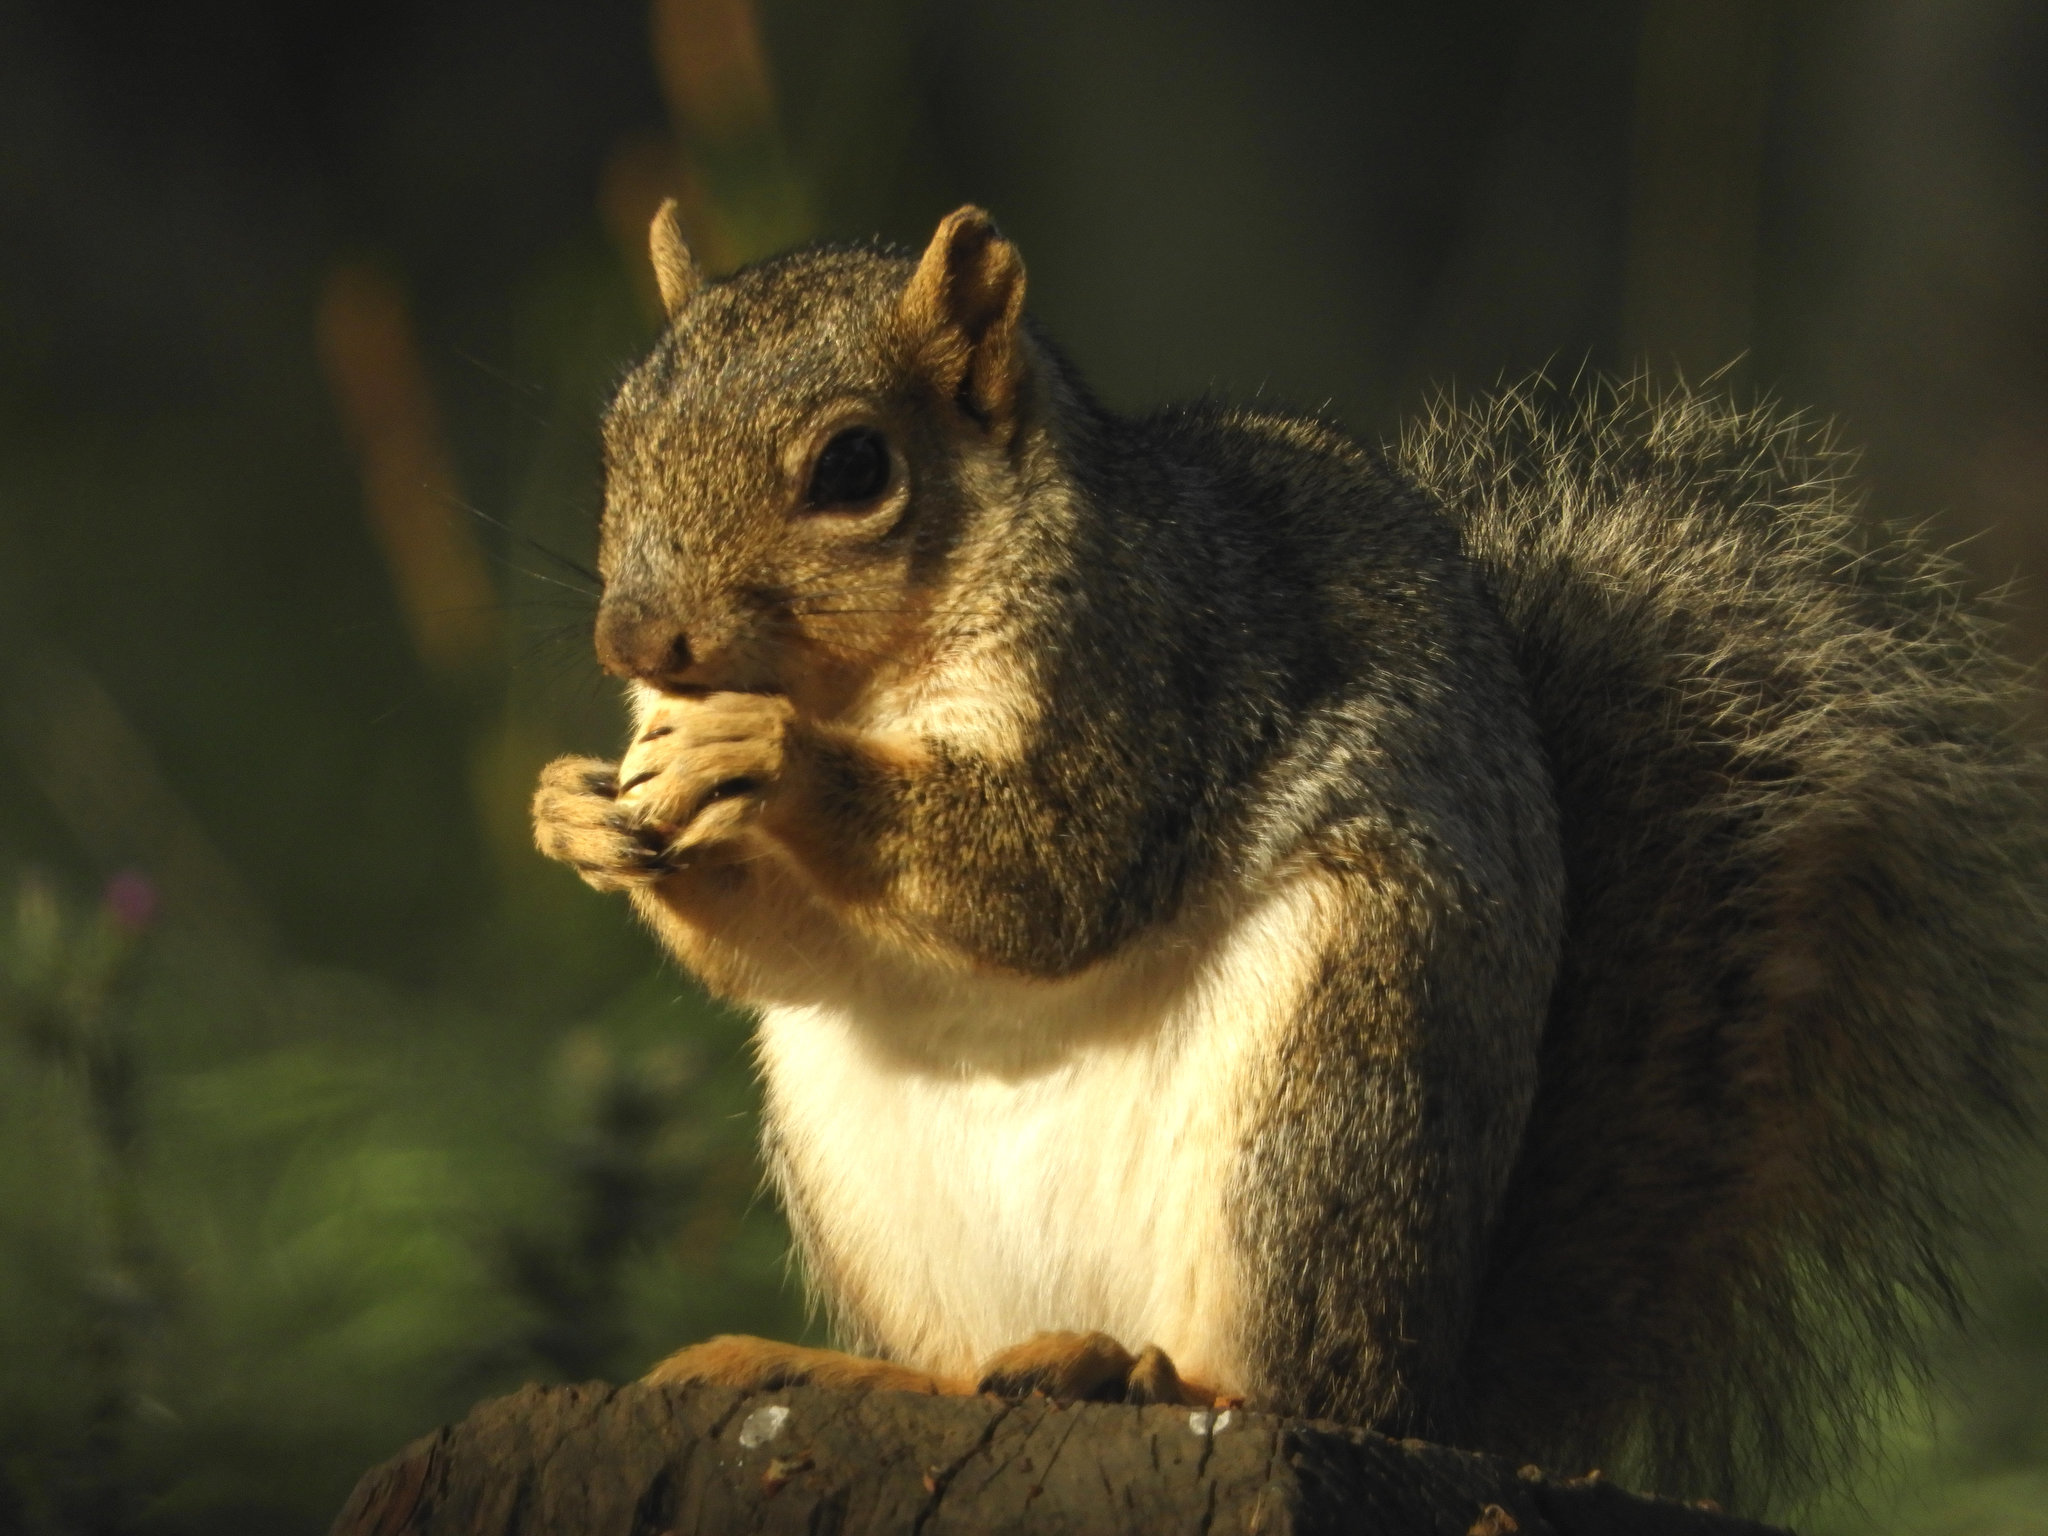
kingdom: Animalia
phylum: Chordata
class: Mammalia
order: Rodentia
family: Sciuridae
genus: Sciurus
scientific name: Sciurus niger
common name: Fox squirrel
